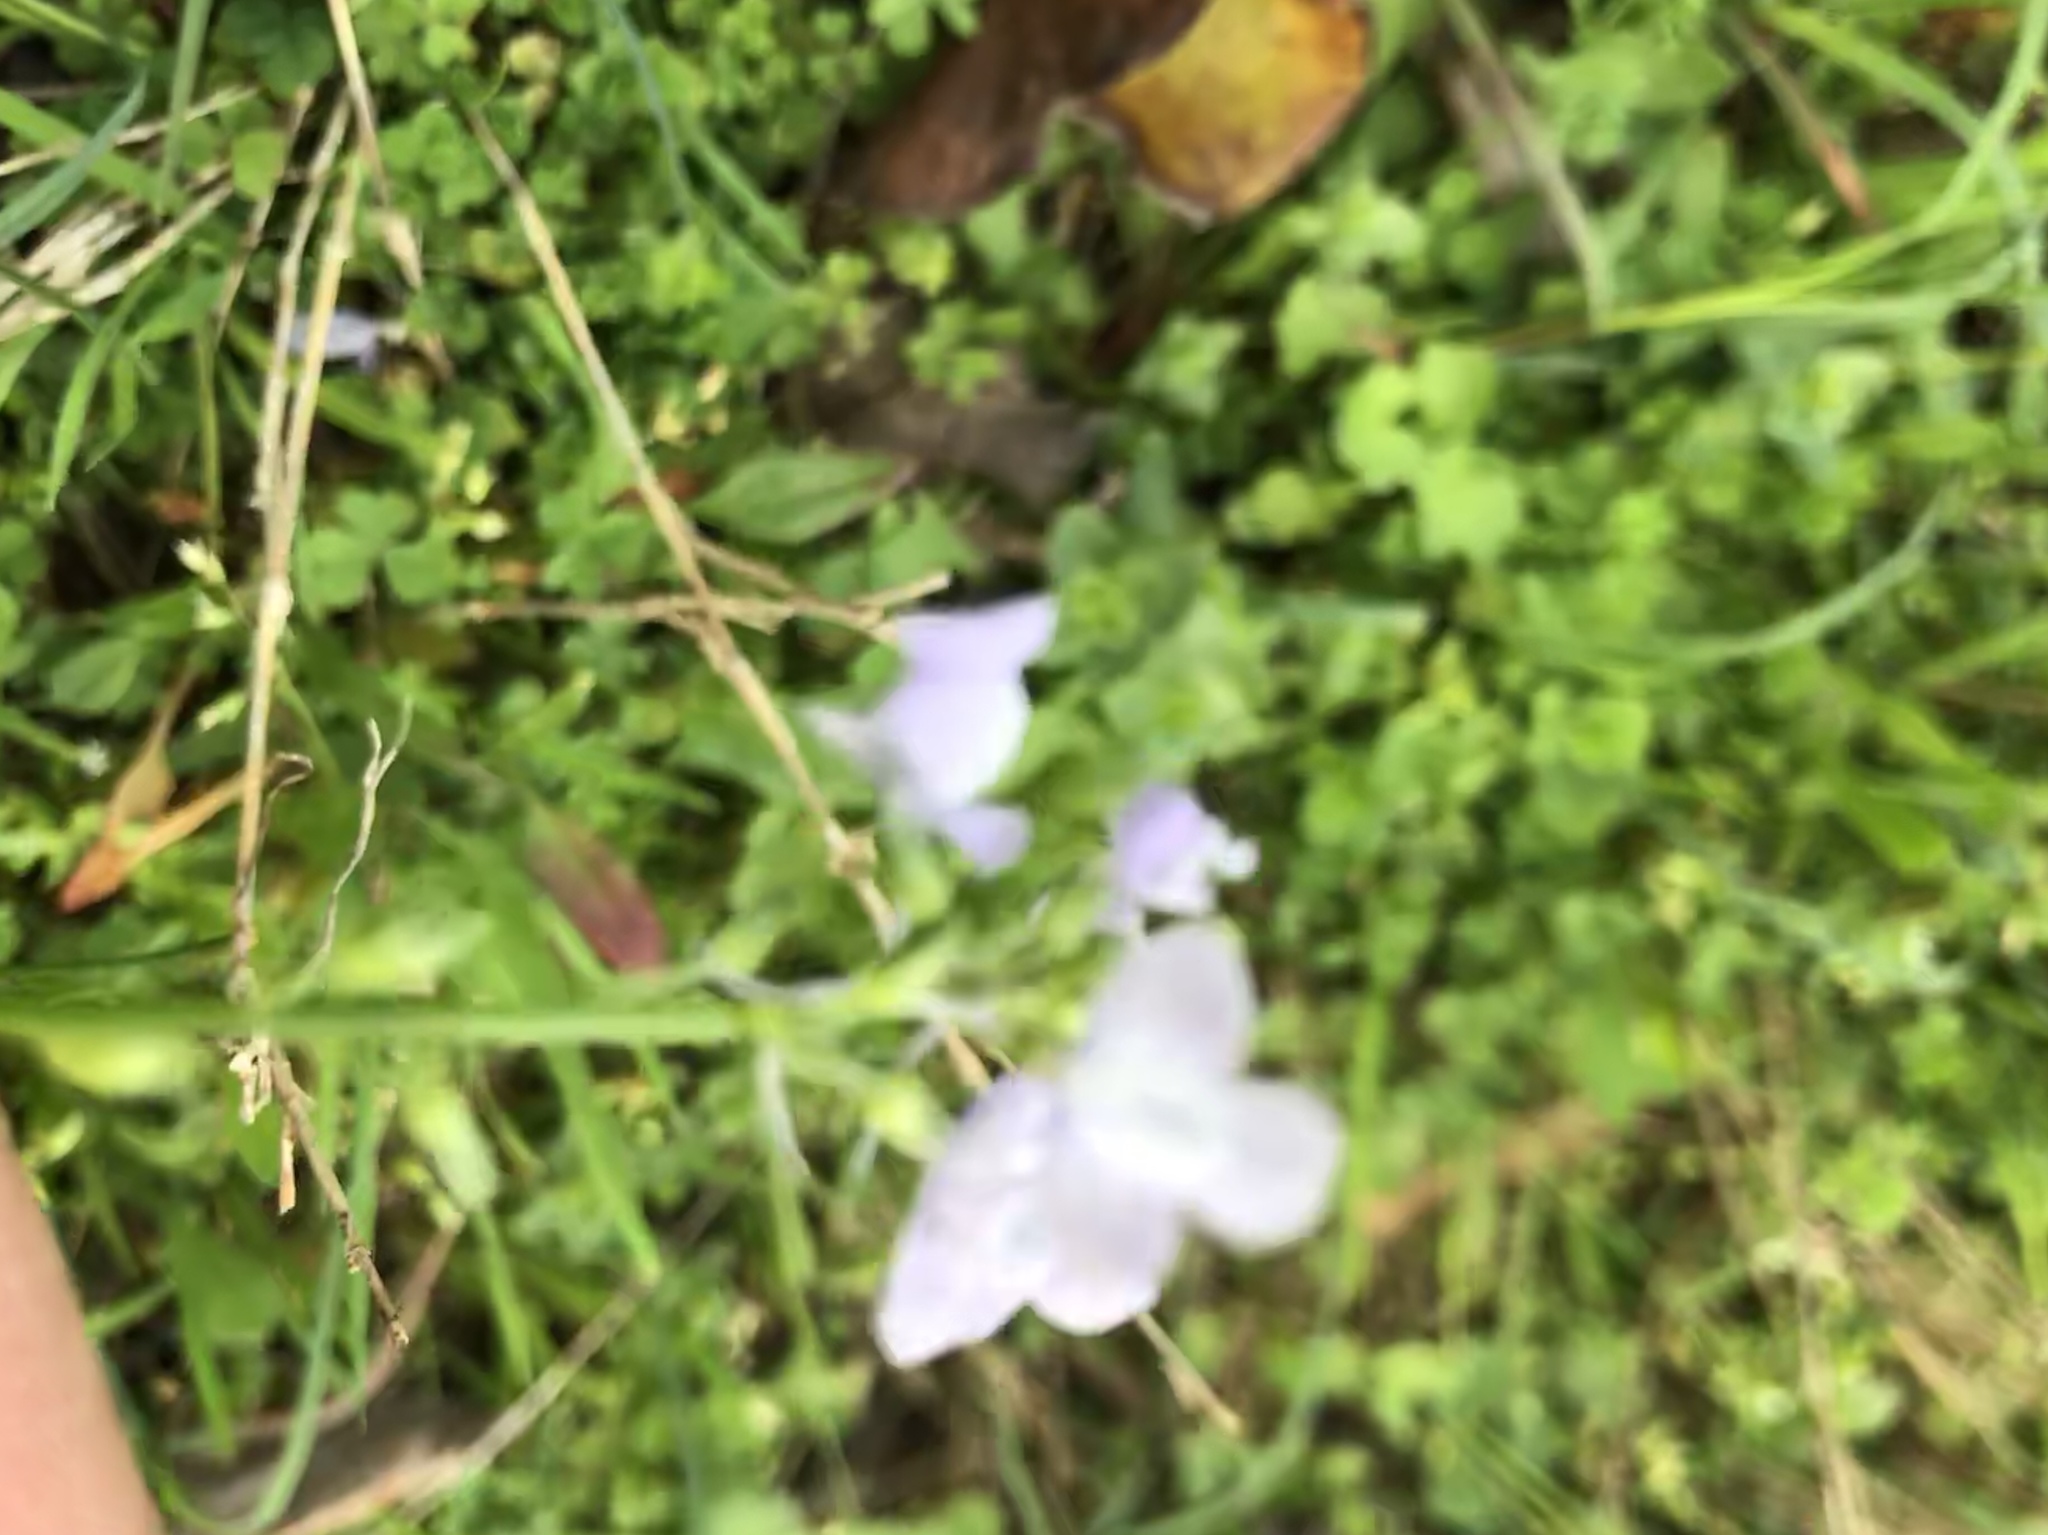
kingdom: Plantae
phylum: Tracheophyta
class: Magnoliopsida
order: Lamiales
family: Plantaginaceae
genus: Nuttallanthus
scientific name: Nuttallanthus texanus
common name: Texas toadflax
